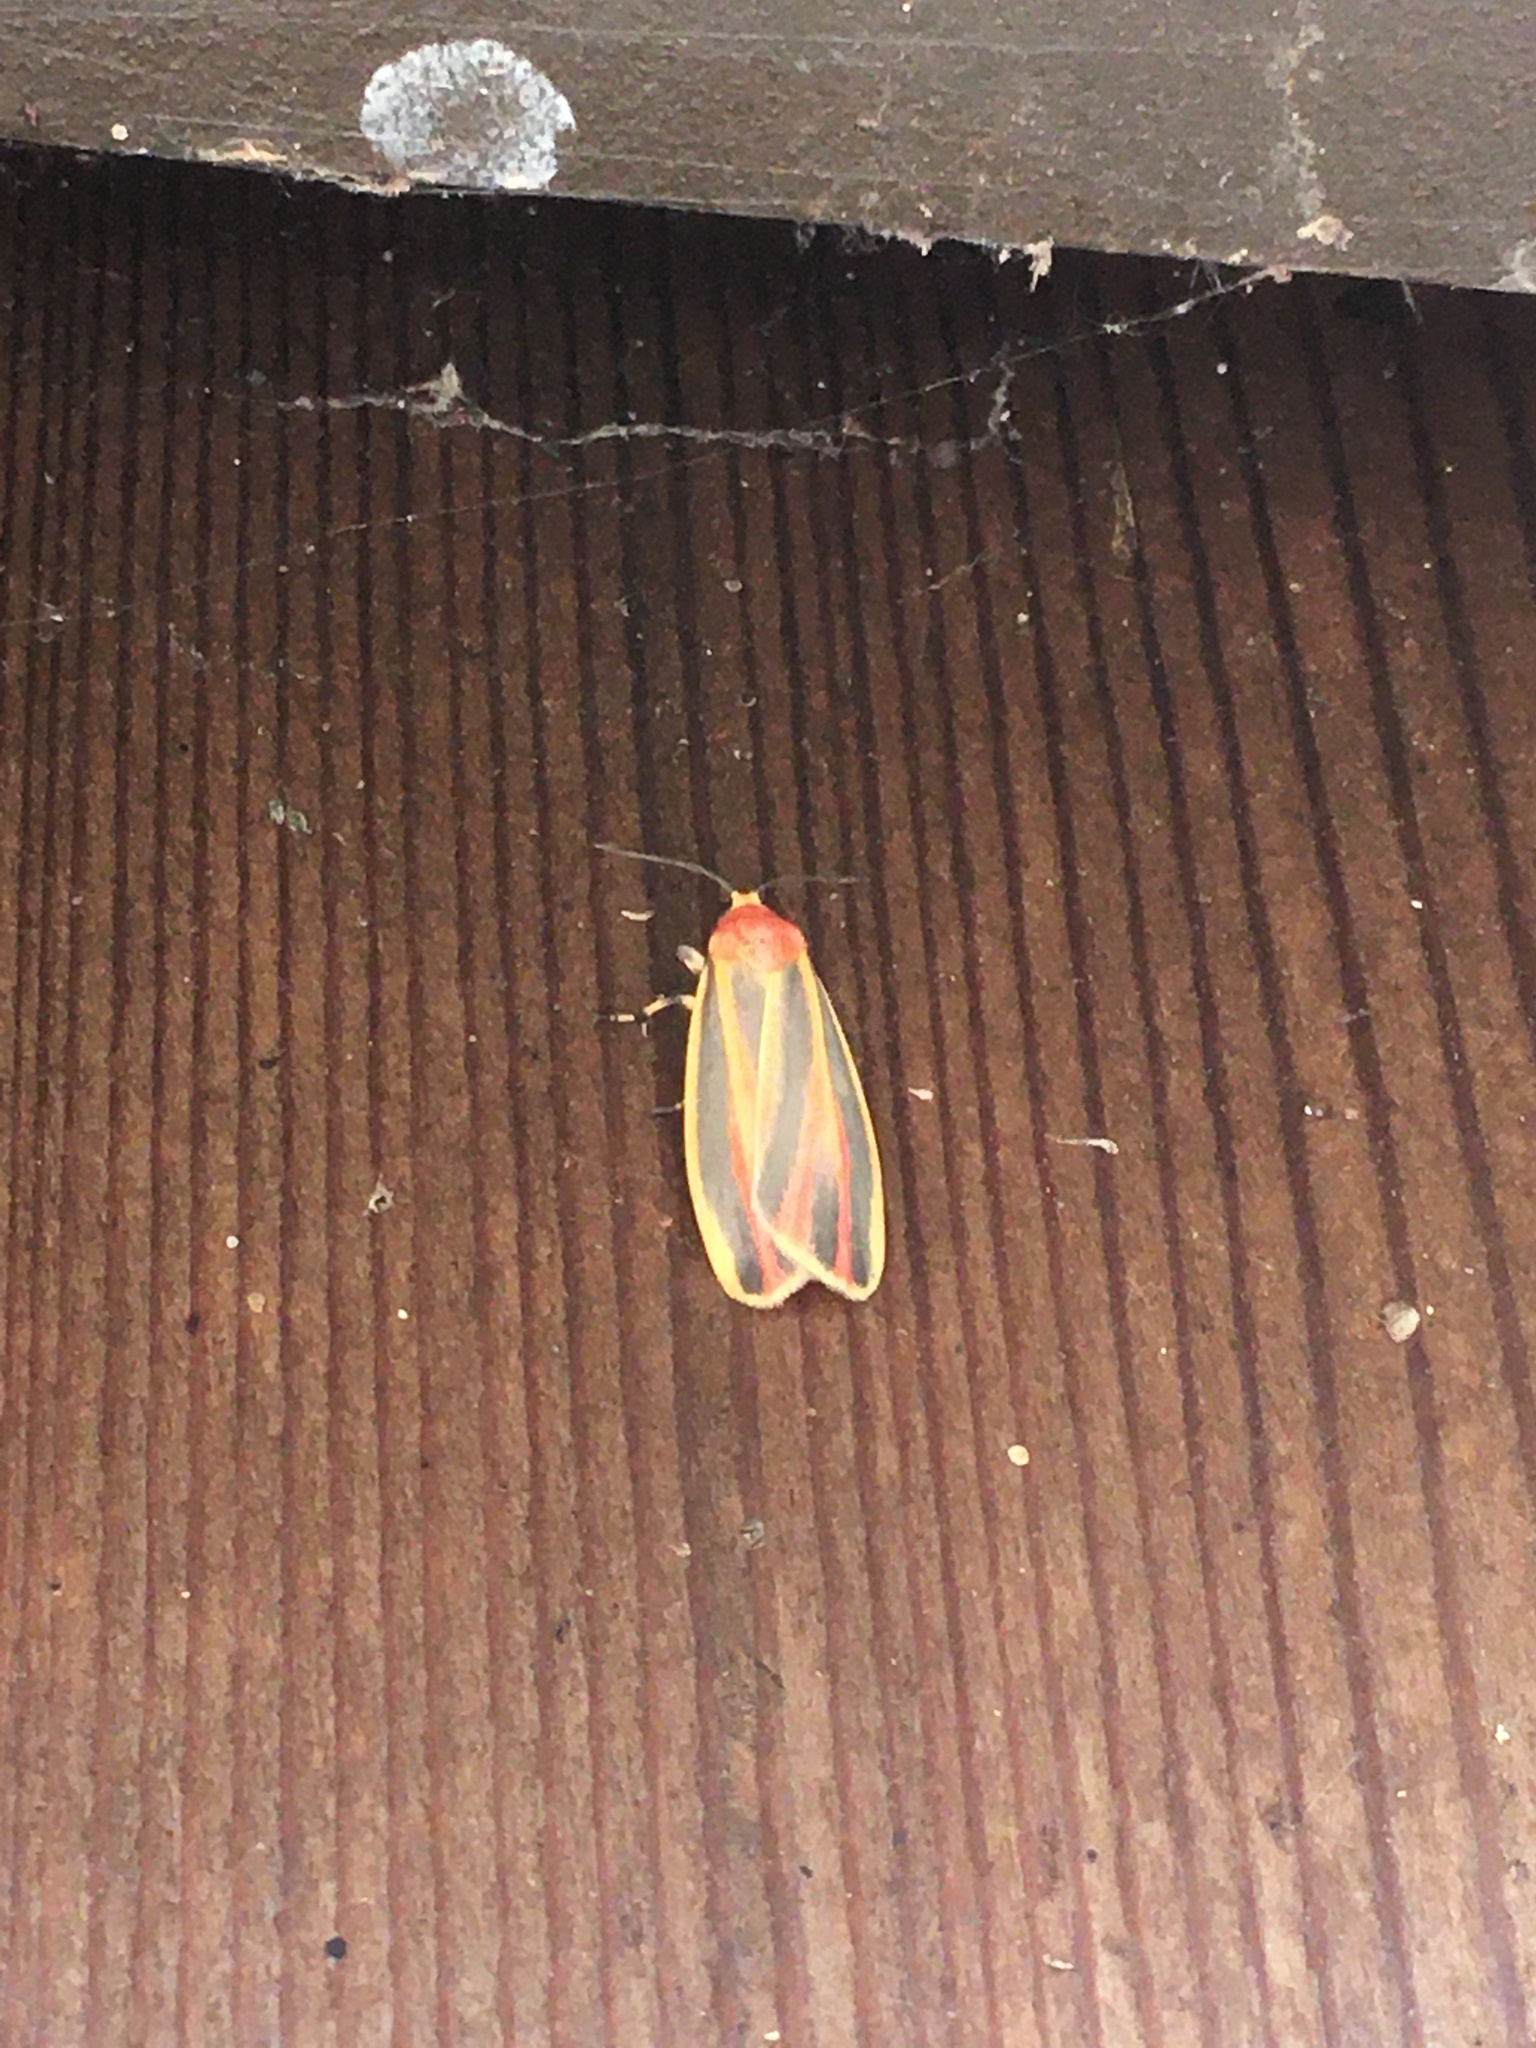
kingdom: Animalia
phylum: Arthropoda
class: Insecta
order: Lepidoptera
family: Erebidae
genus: Hypoprepia
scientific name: Hypoprepia fucosa
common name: Painted lichen moth
